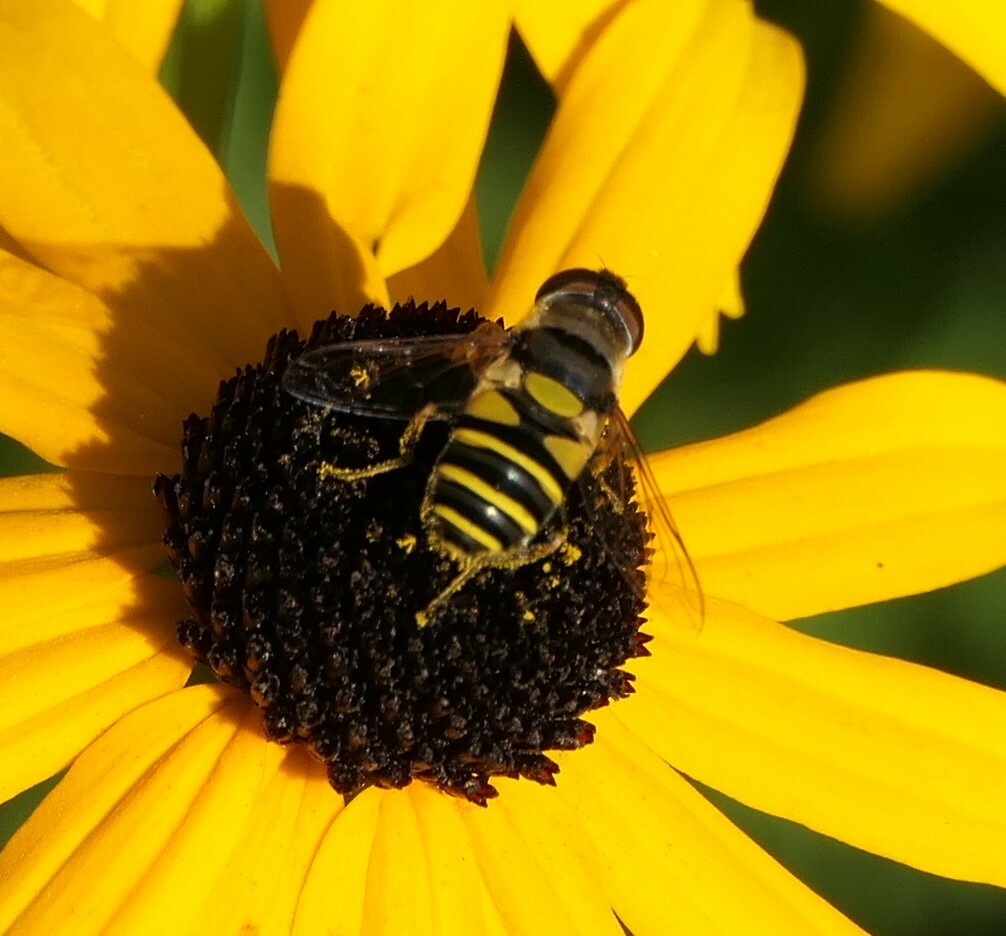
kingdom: Animalia
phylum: Arthropoda
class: Insecta
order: Diptera
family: Syrphidae
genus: Eristalis
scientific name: Eristalis transversa
